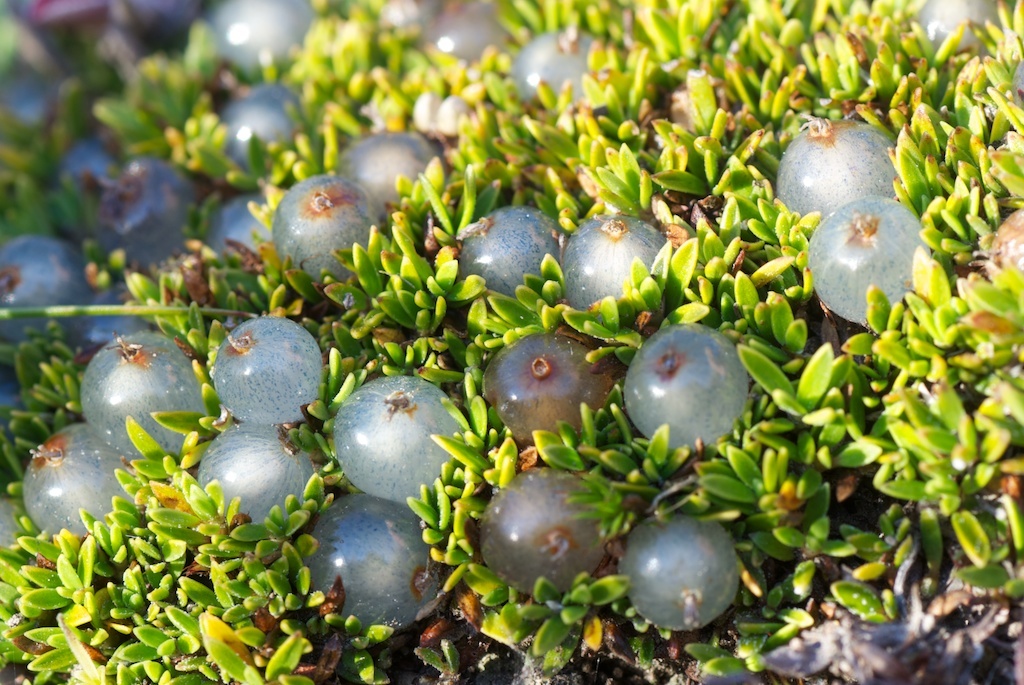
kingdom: Plantae
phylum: Tracheophyta
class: Magnoliopsida
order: Gentianales
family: Rubiaceae
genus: Coprosma
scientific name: Coprosma petriei
